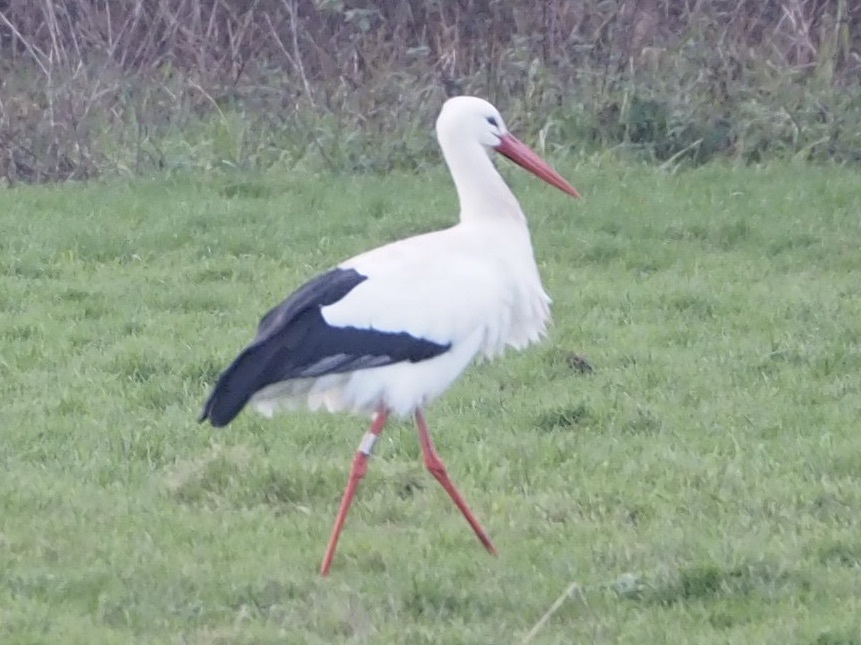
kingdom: Animalia
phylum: Chordata
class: Aves
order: Ciconiiformes
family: Ciconiidae
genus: Ciconia
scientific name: Ciconia ciconia
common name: White stork
